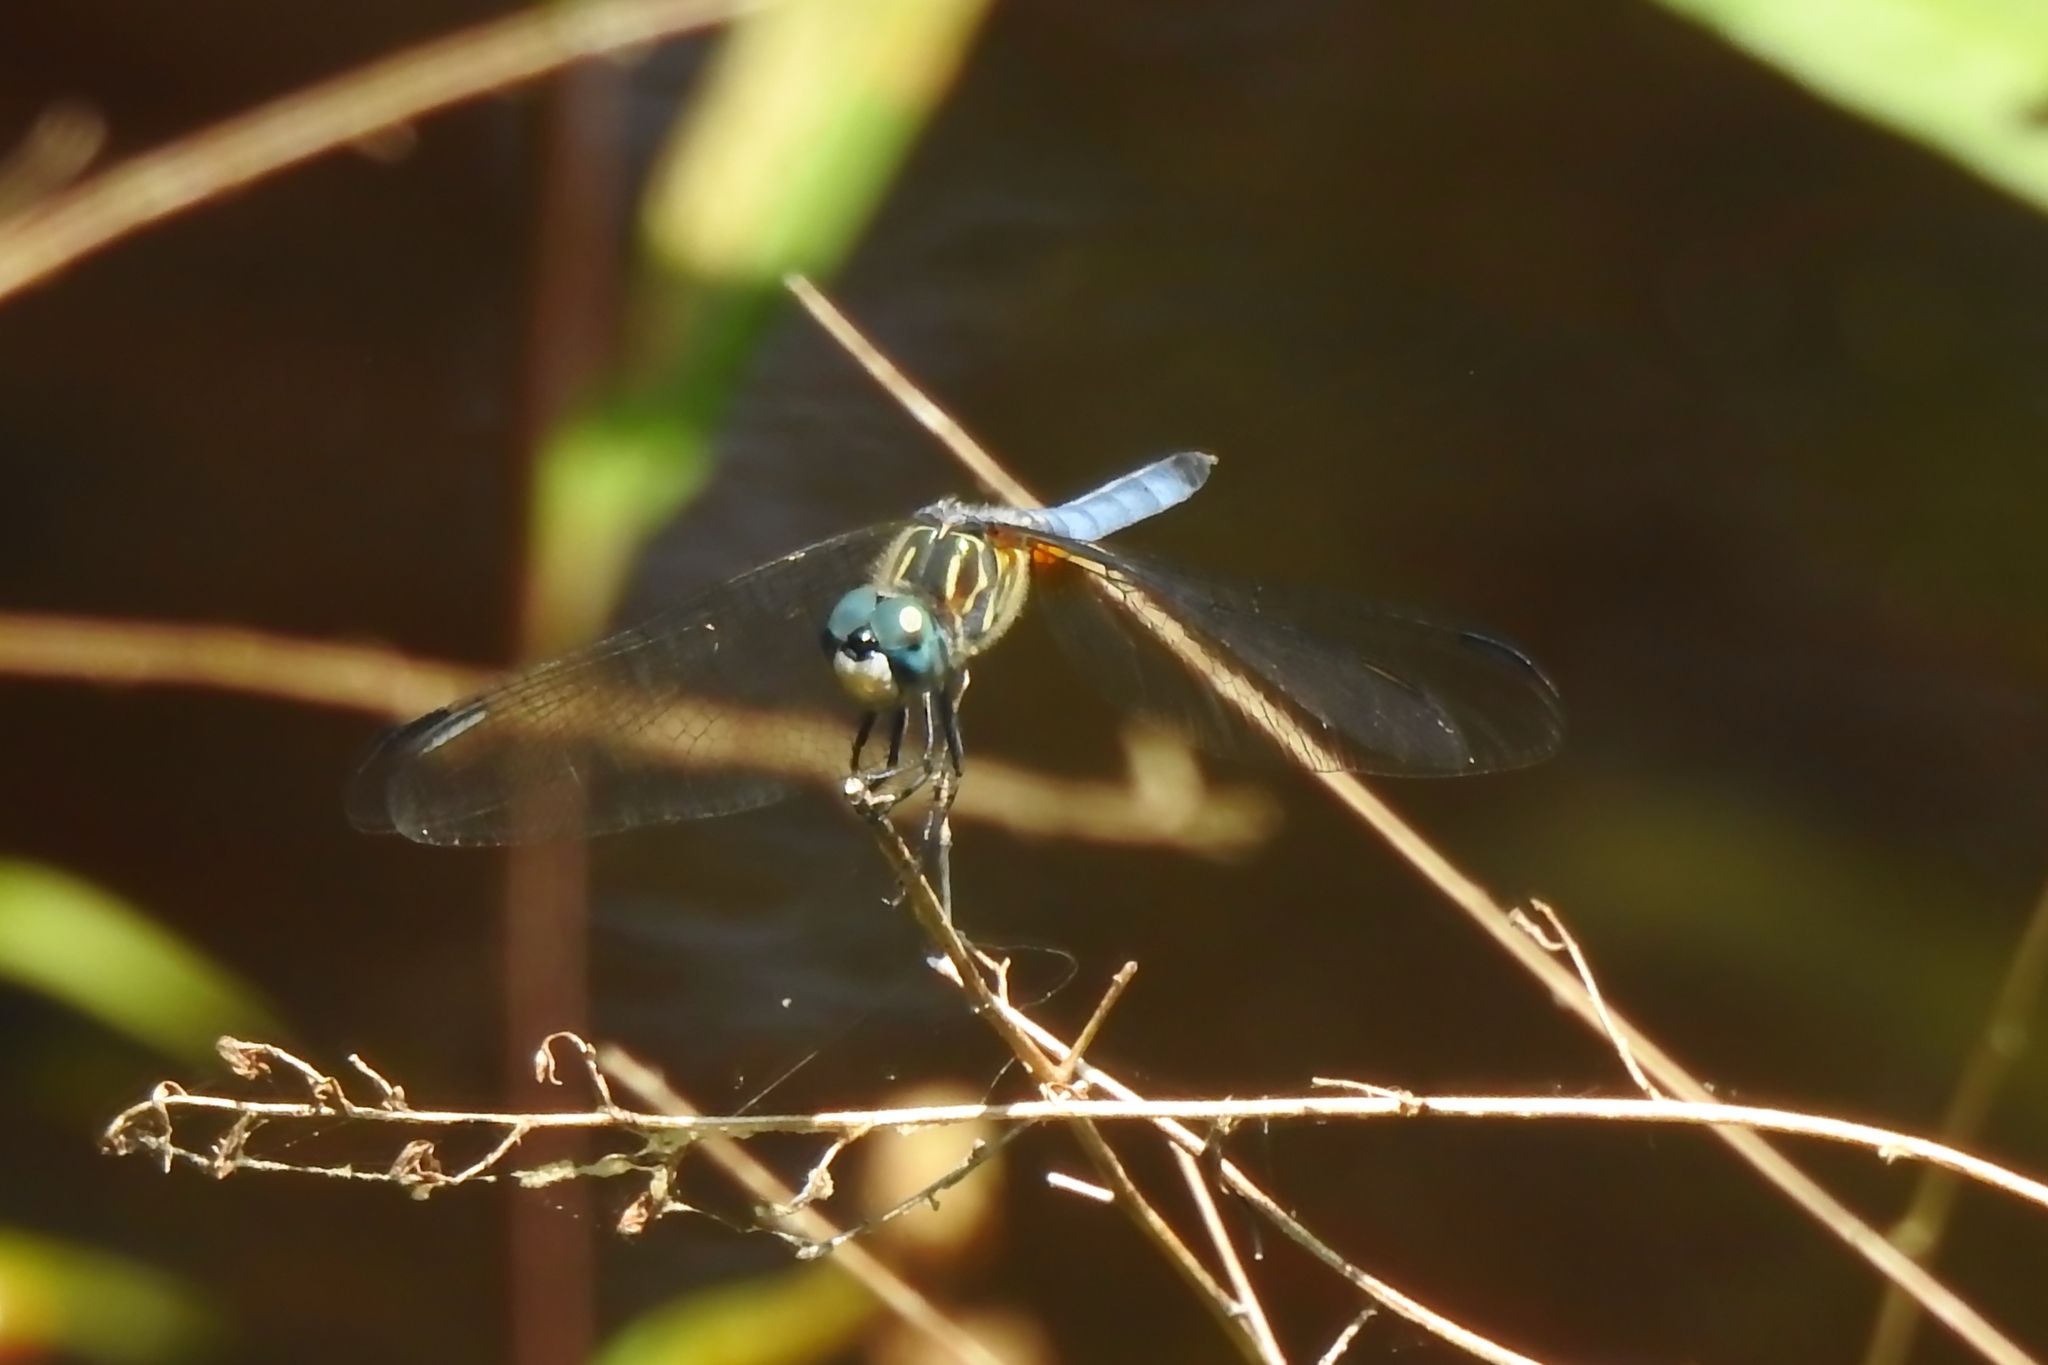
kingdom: Animalia
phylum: Arthropoda
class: Insecta
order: Odonata
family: Libellulidae
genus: Pachydiplax
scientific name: Pachydiplax longipennis
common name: Blue dasher
